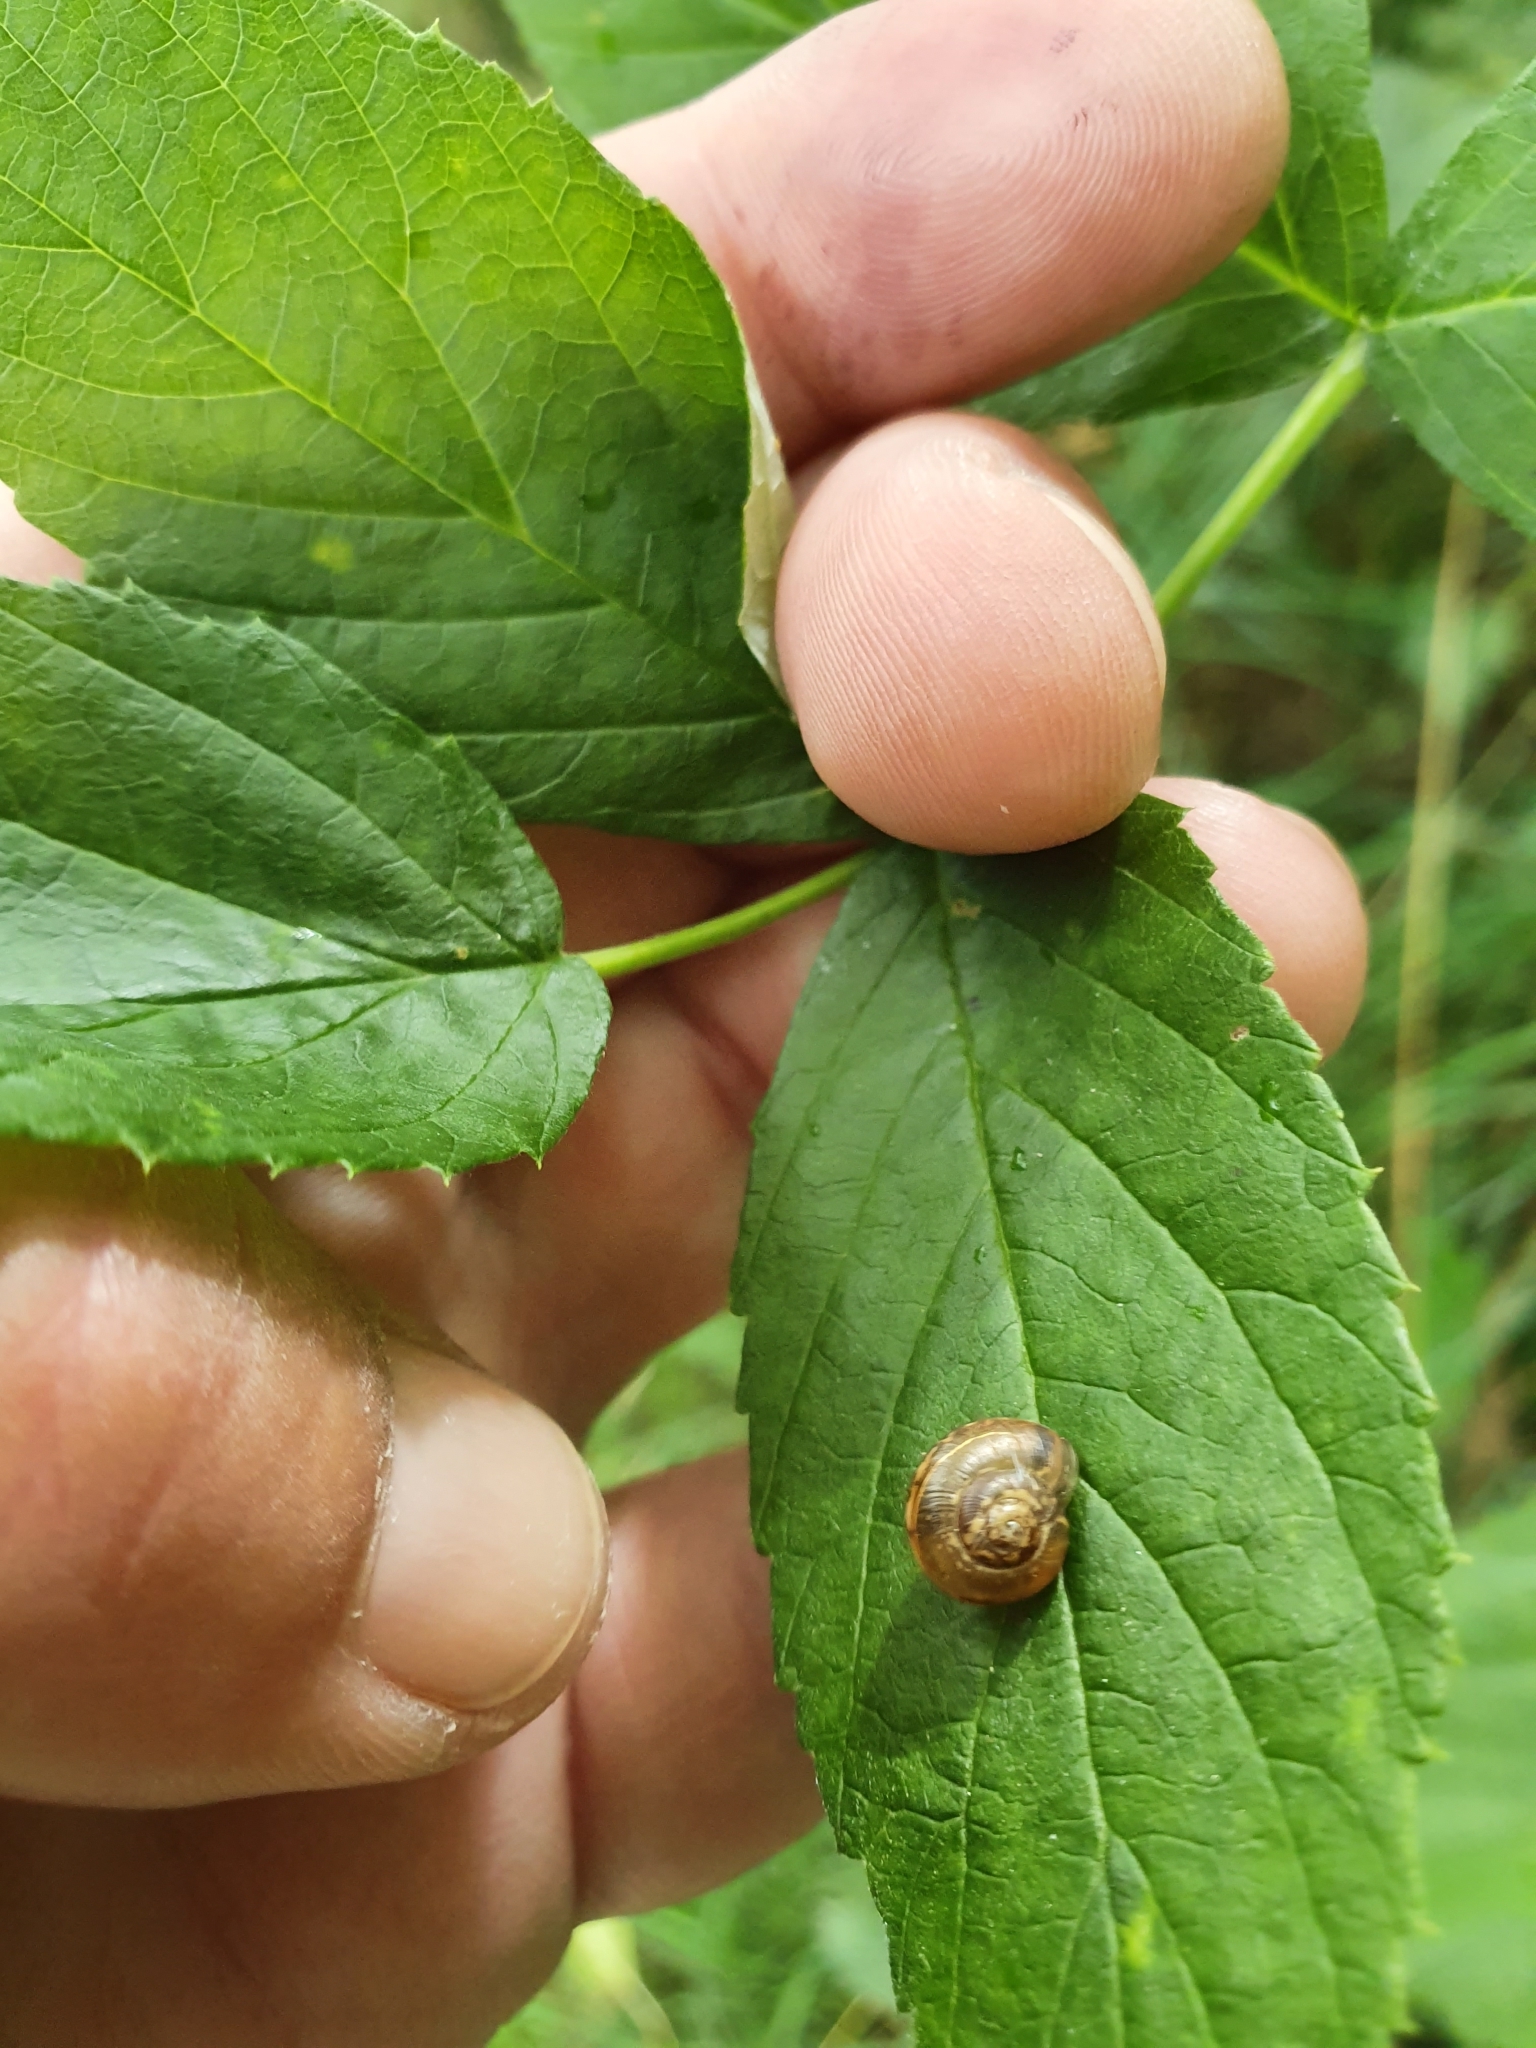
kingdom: Animalia
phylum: Mollusca
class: Gastropoda
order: Stylommatophora
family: Helicidae
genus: Arianta
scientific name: Arianta arbustorum
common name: Copse snail
